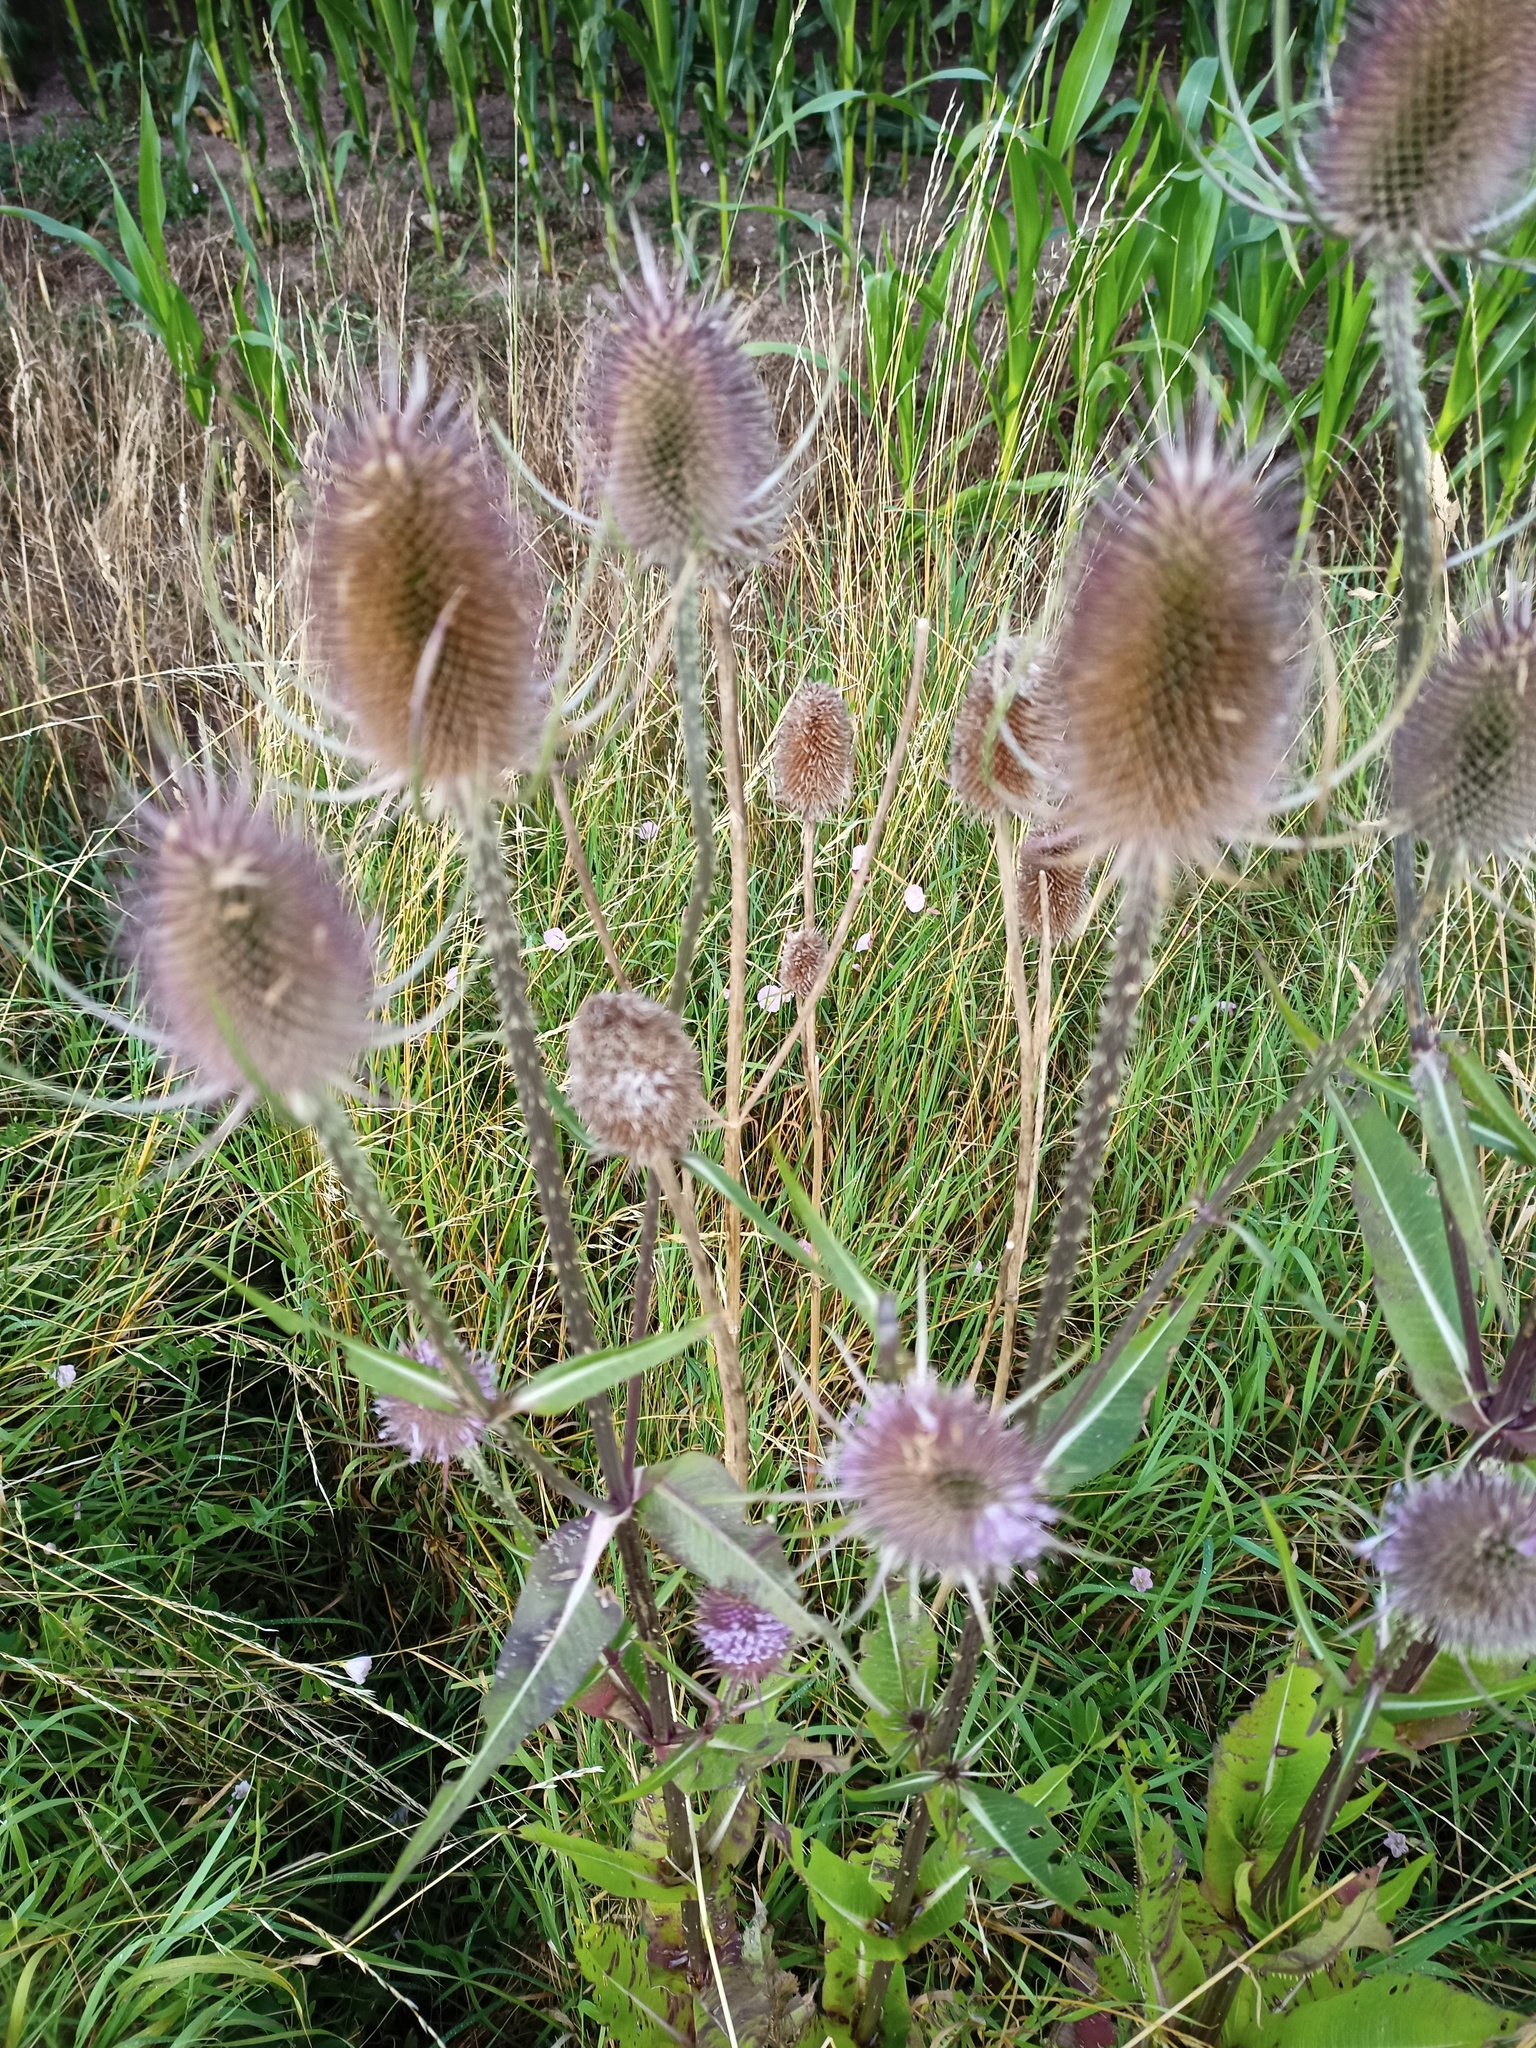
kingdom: Plantae
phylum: Tracheophyta
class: Magnoliopsida
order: Dipsacales
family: Caprifoliaceae
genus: Dipsacus
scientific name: Dipsacus fullonum
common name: Teasel
